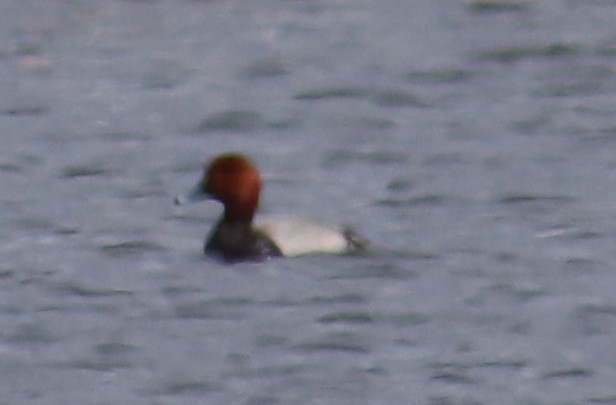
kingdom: Animalia
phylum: Chordata
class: Aves
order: Anseriformes
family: Anatidae
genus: Aythya
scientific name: Aythya americana
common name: Redhead
